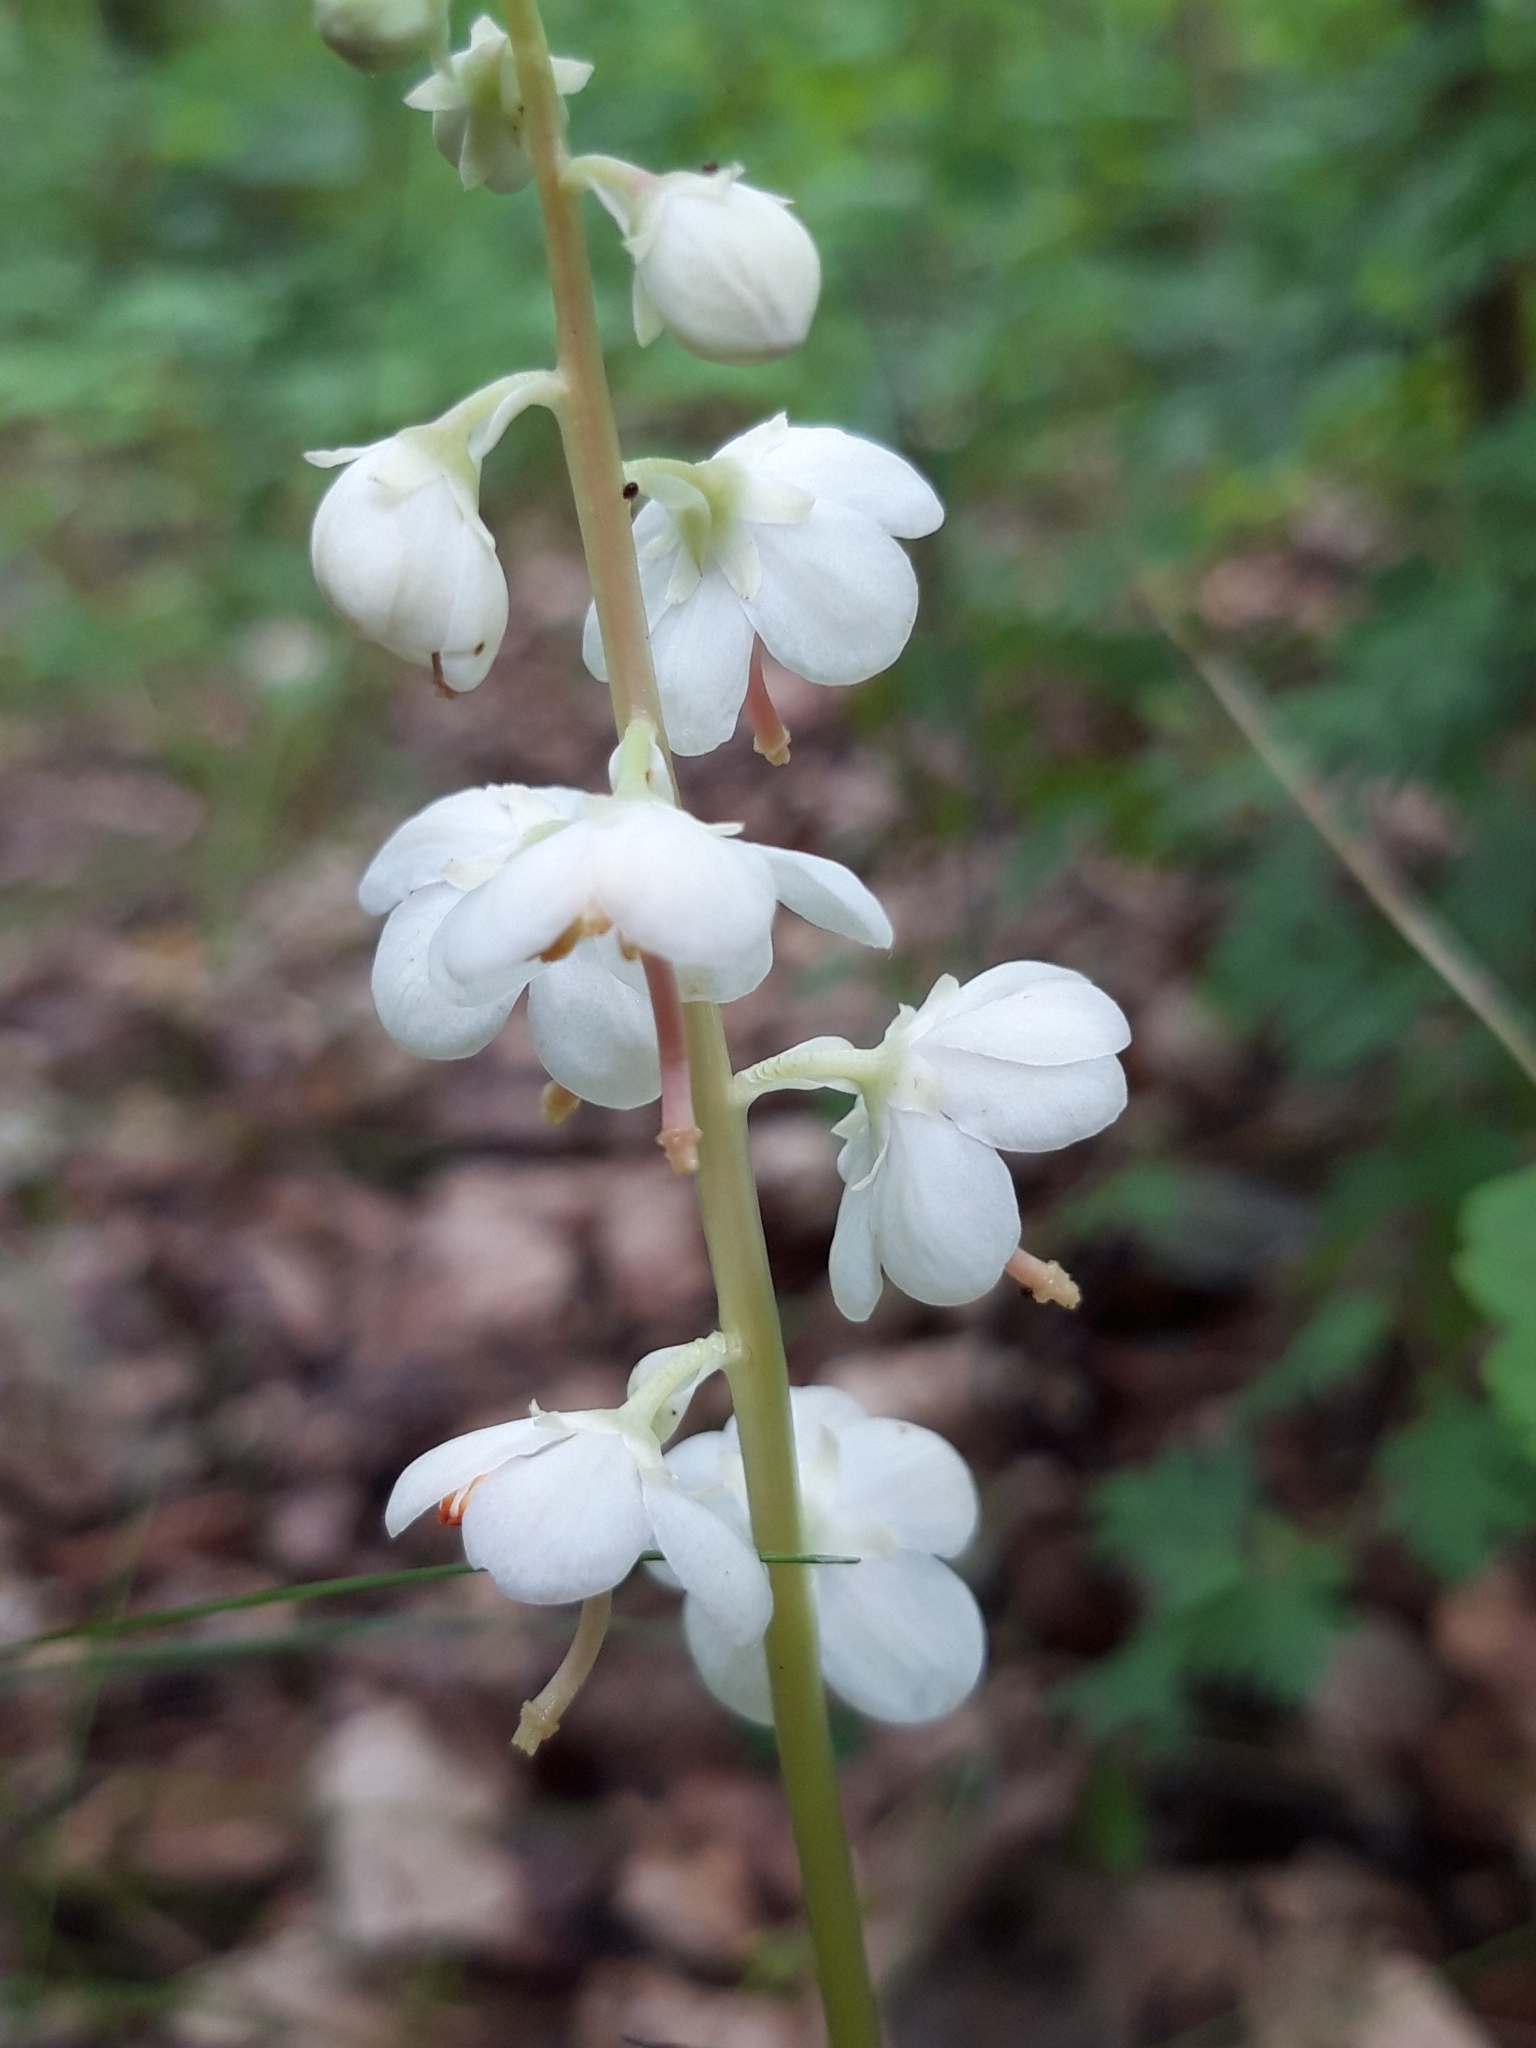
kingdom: Plantae
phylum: Tracheophyta
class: Magnoliopsida
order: Ericales
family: Ericaceae
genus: Pyrola
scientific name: Pyrola rotundifolia
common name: Round-leaved wintergreen
